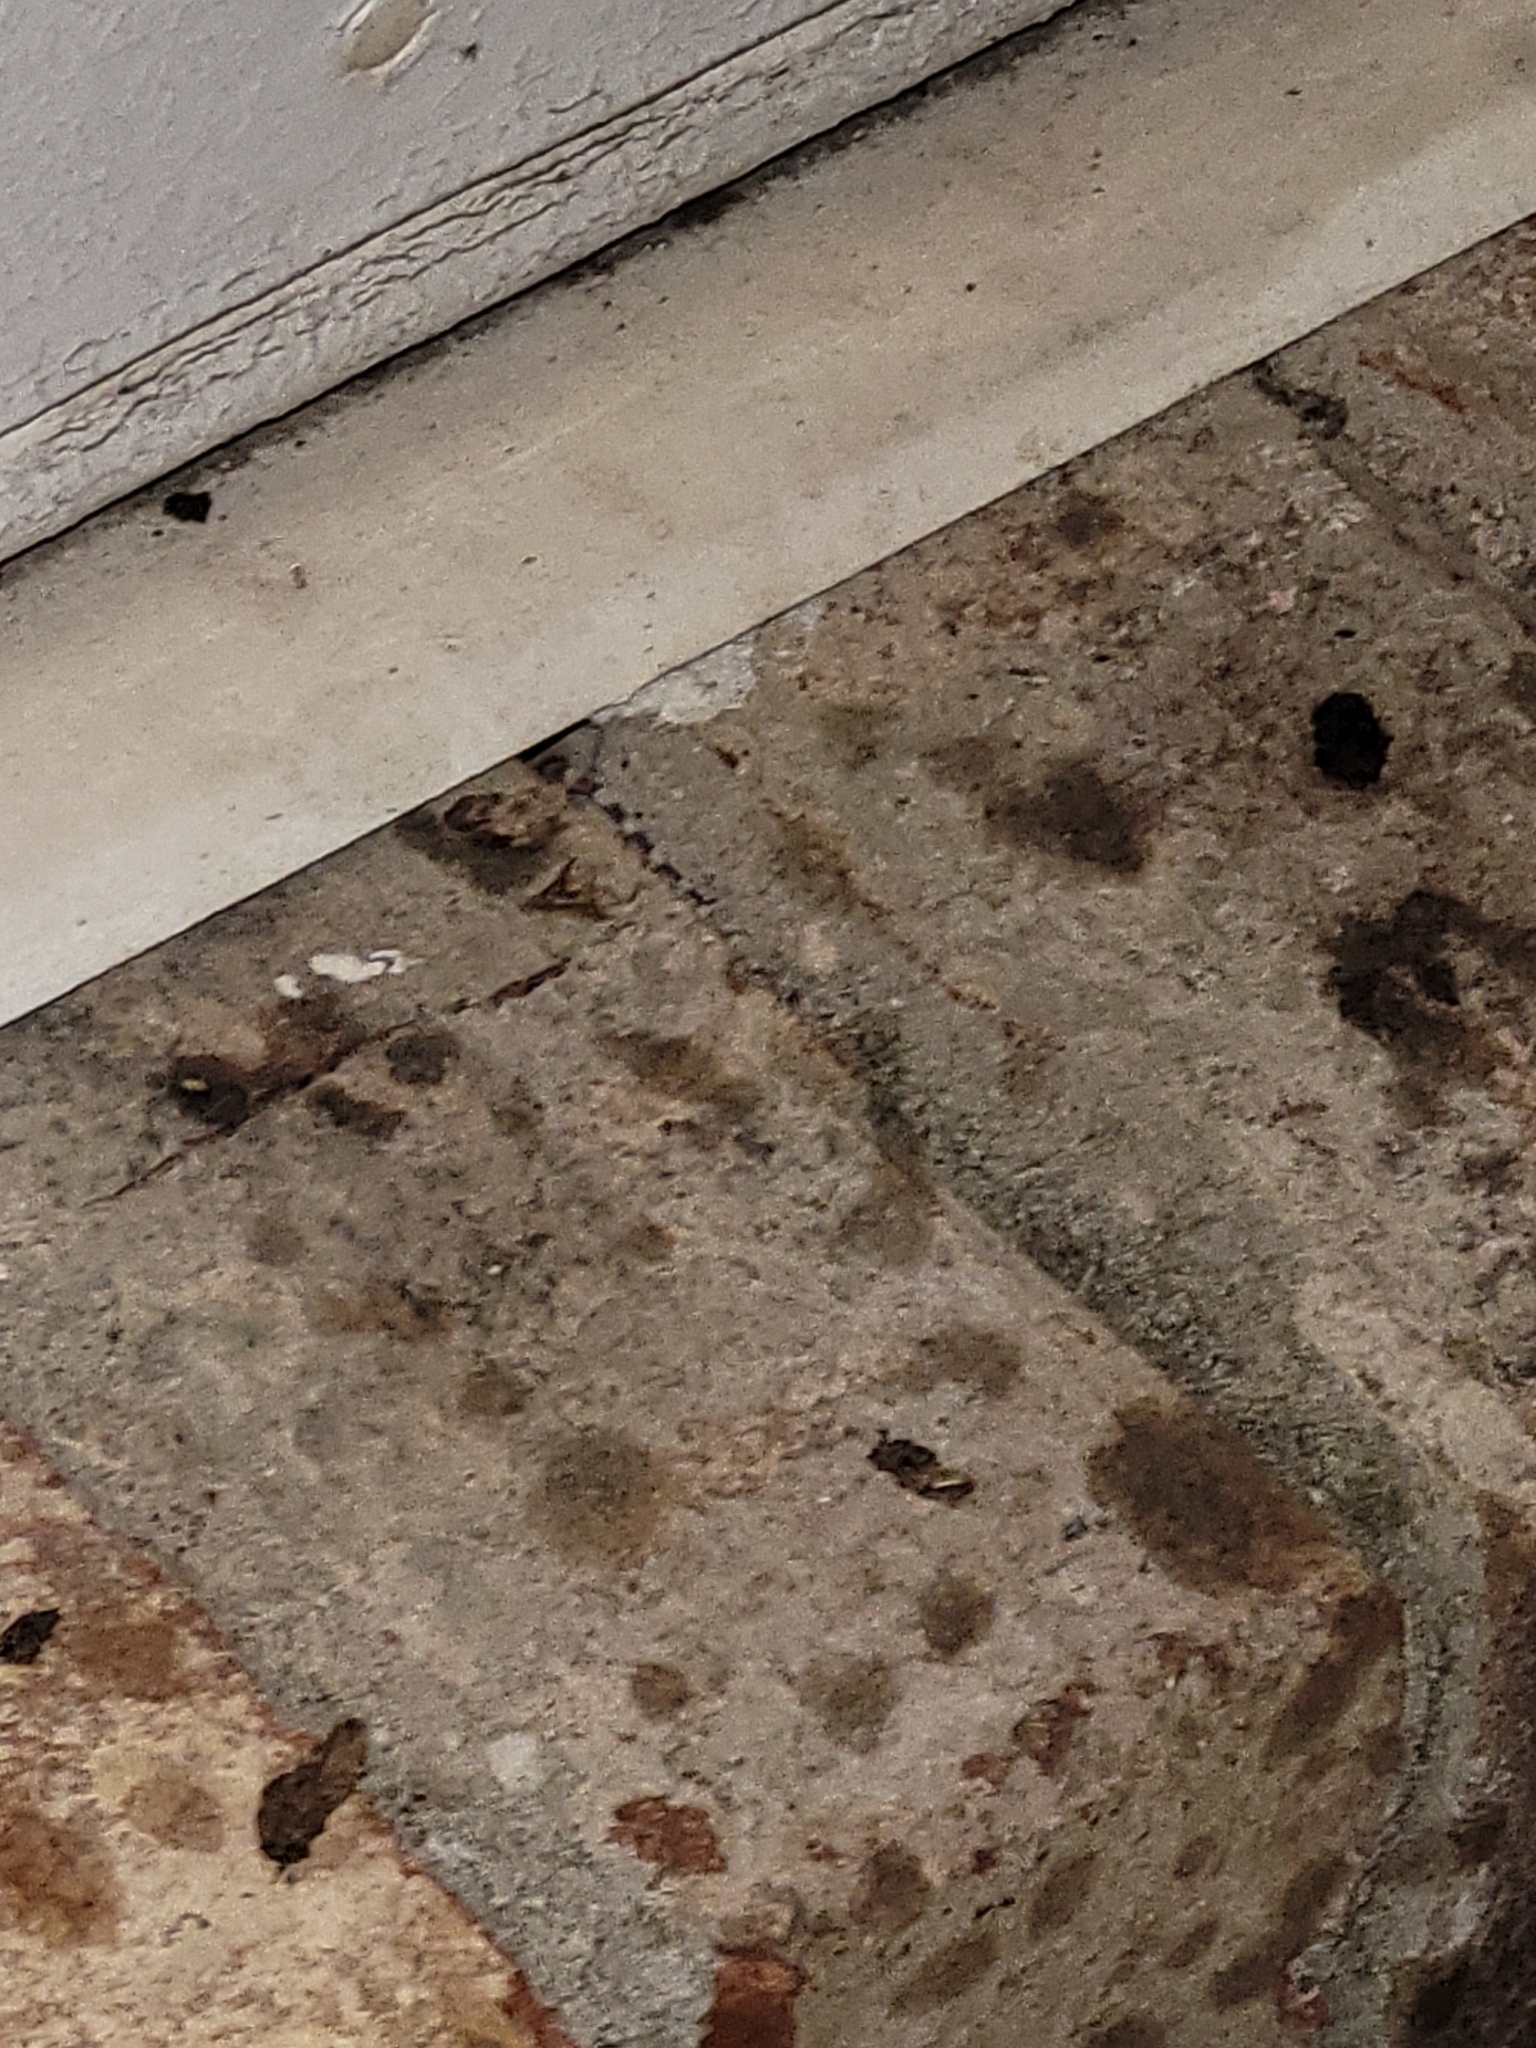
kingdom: Animalia
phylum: Chordata
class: Squamata
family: Gekkonidae
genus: Hemidactylus
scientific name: Hemidactylus turcicus
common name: Turkish gecko
